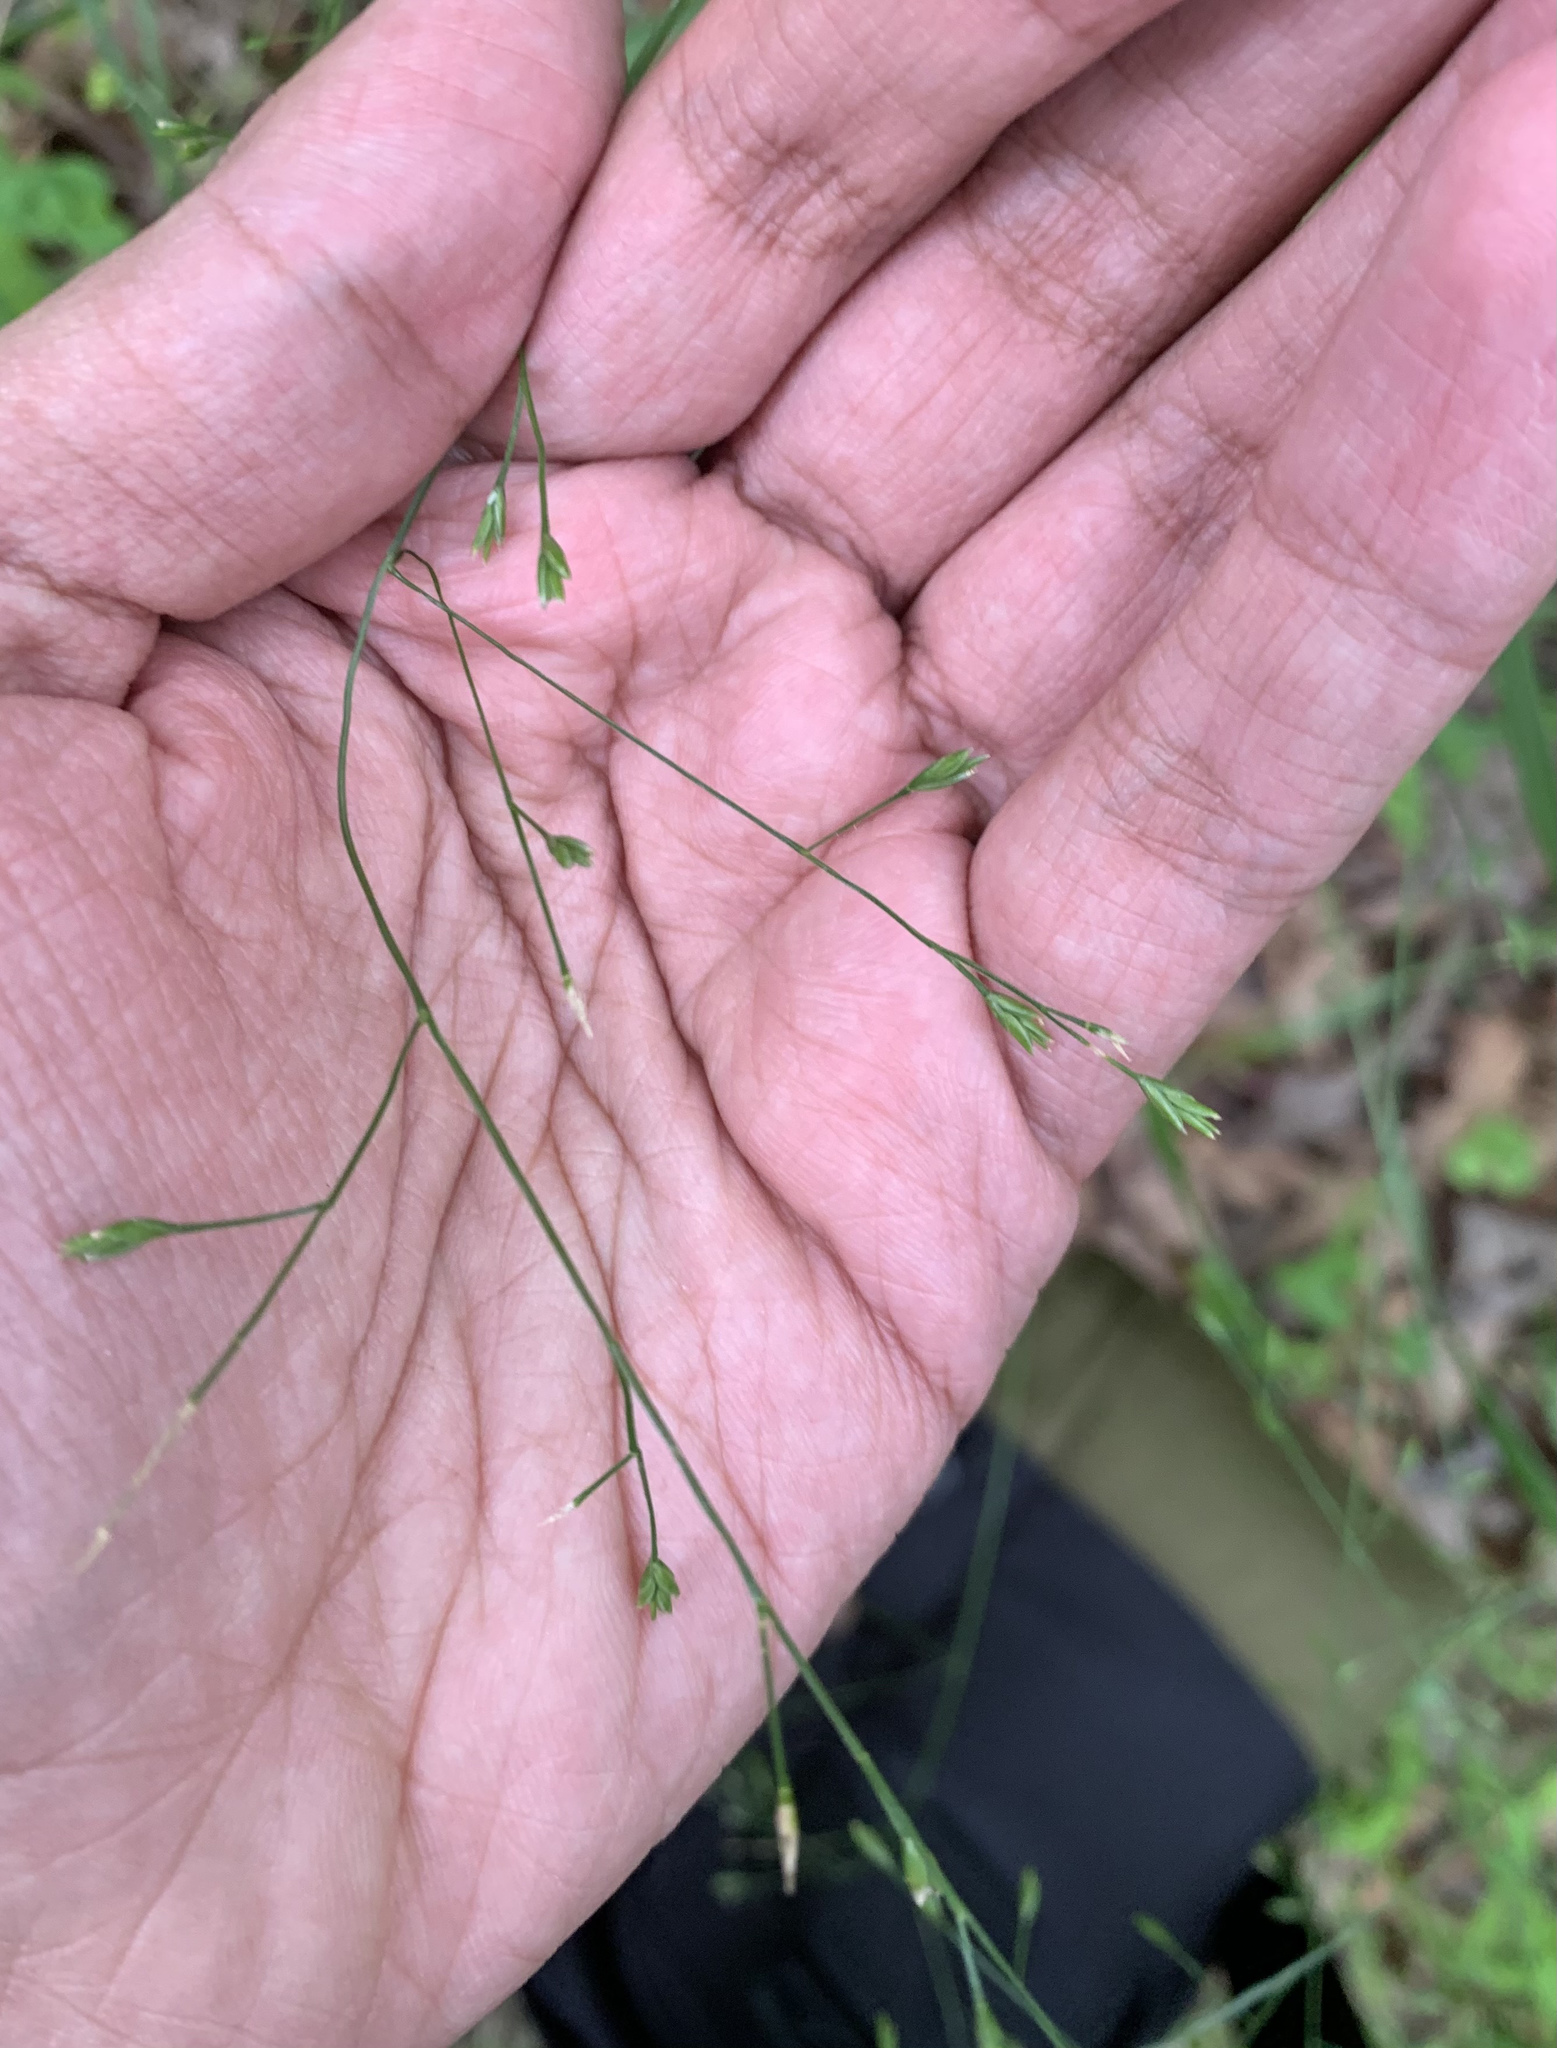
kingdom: Plantae
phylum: Tracheophyta
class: Liliopsida
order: Poales
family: Poaceae
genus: Festuca
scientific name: Festuca subverticillata
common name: Nodding fescue
